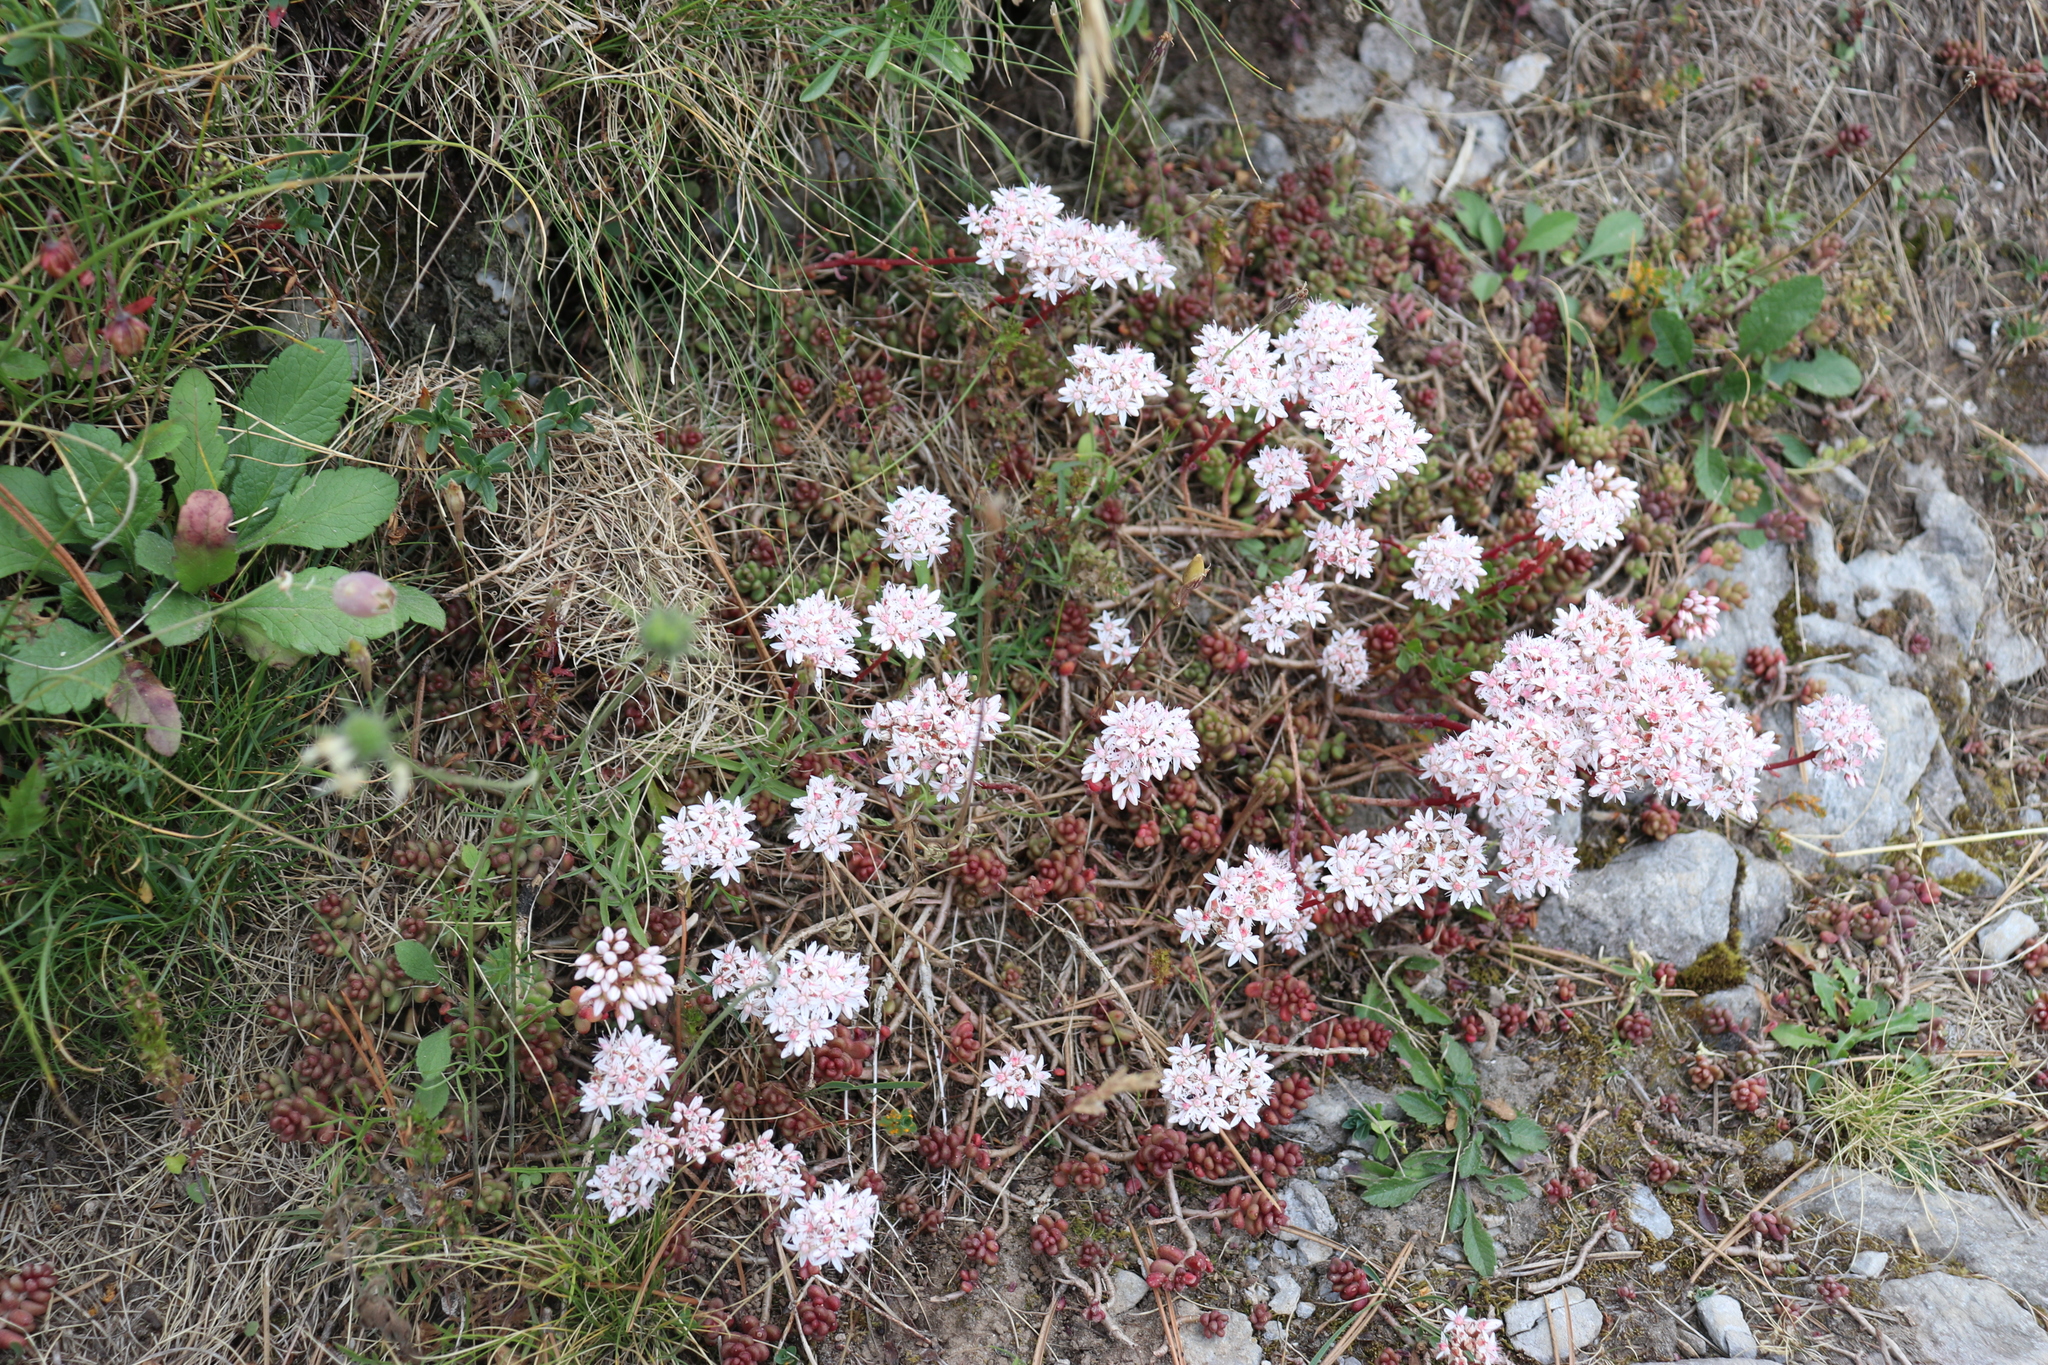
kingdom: Plantae
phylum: Tracheophyta
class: Magnoliopsida
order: Saxifragales
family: Crassulaceae
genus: Sedum
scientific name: Sedum album
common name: White stonecrop
